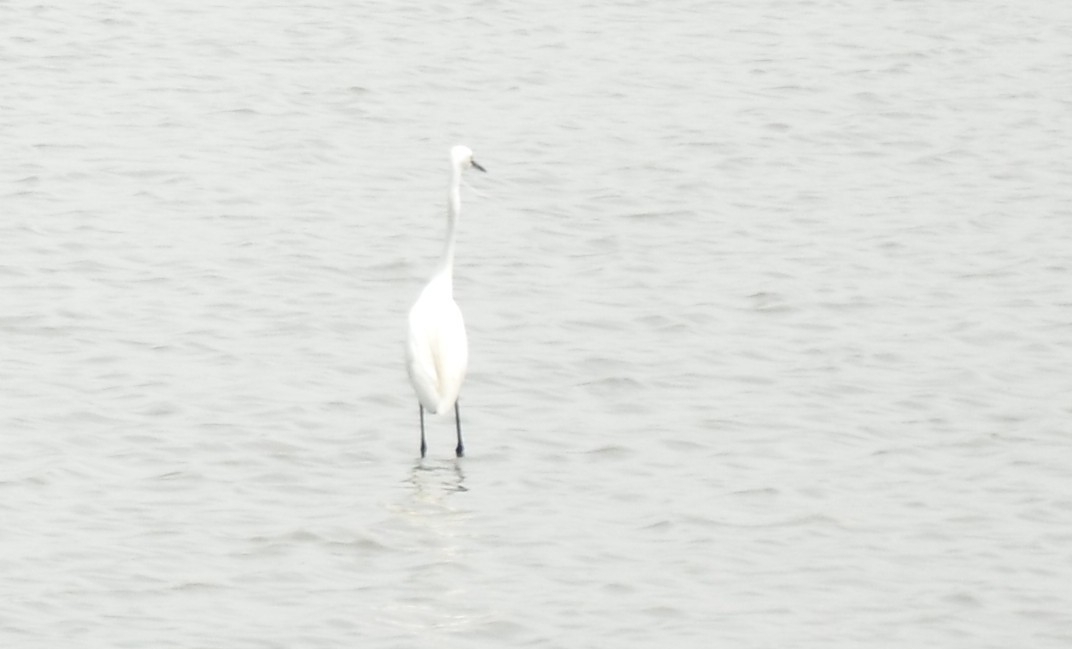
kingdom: Animalia
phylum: Chordata
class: Aves
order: Pelecaniformes
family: Ardeidae
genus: Ardea
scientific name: Ardea alba
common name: Great egret
